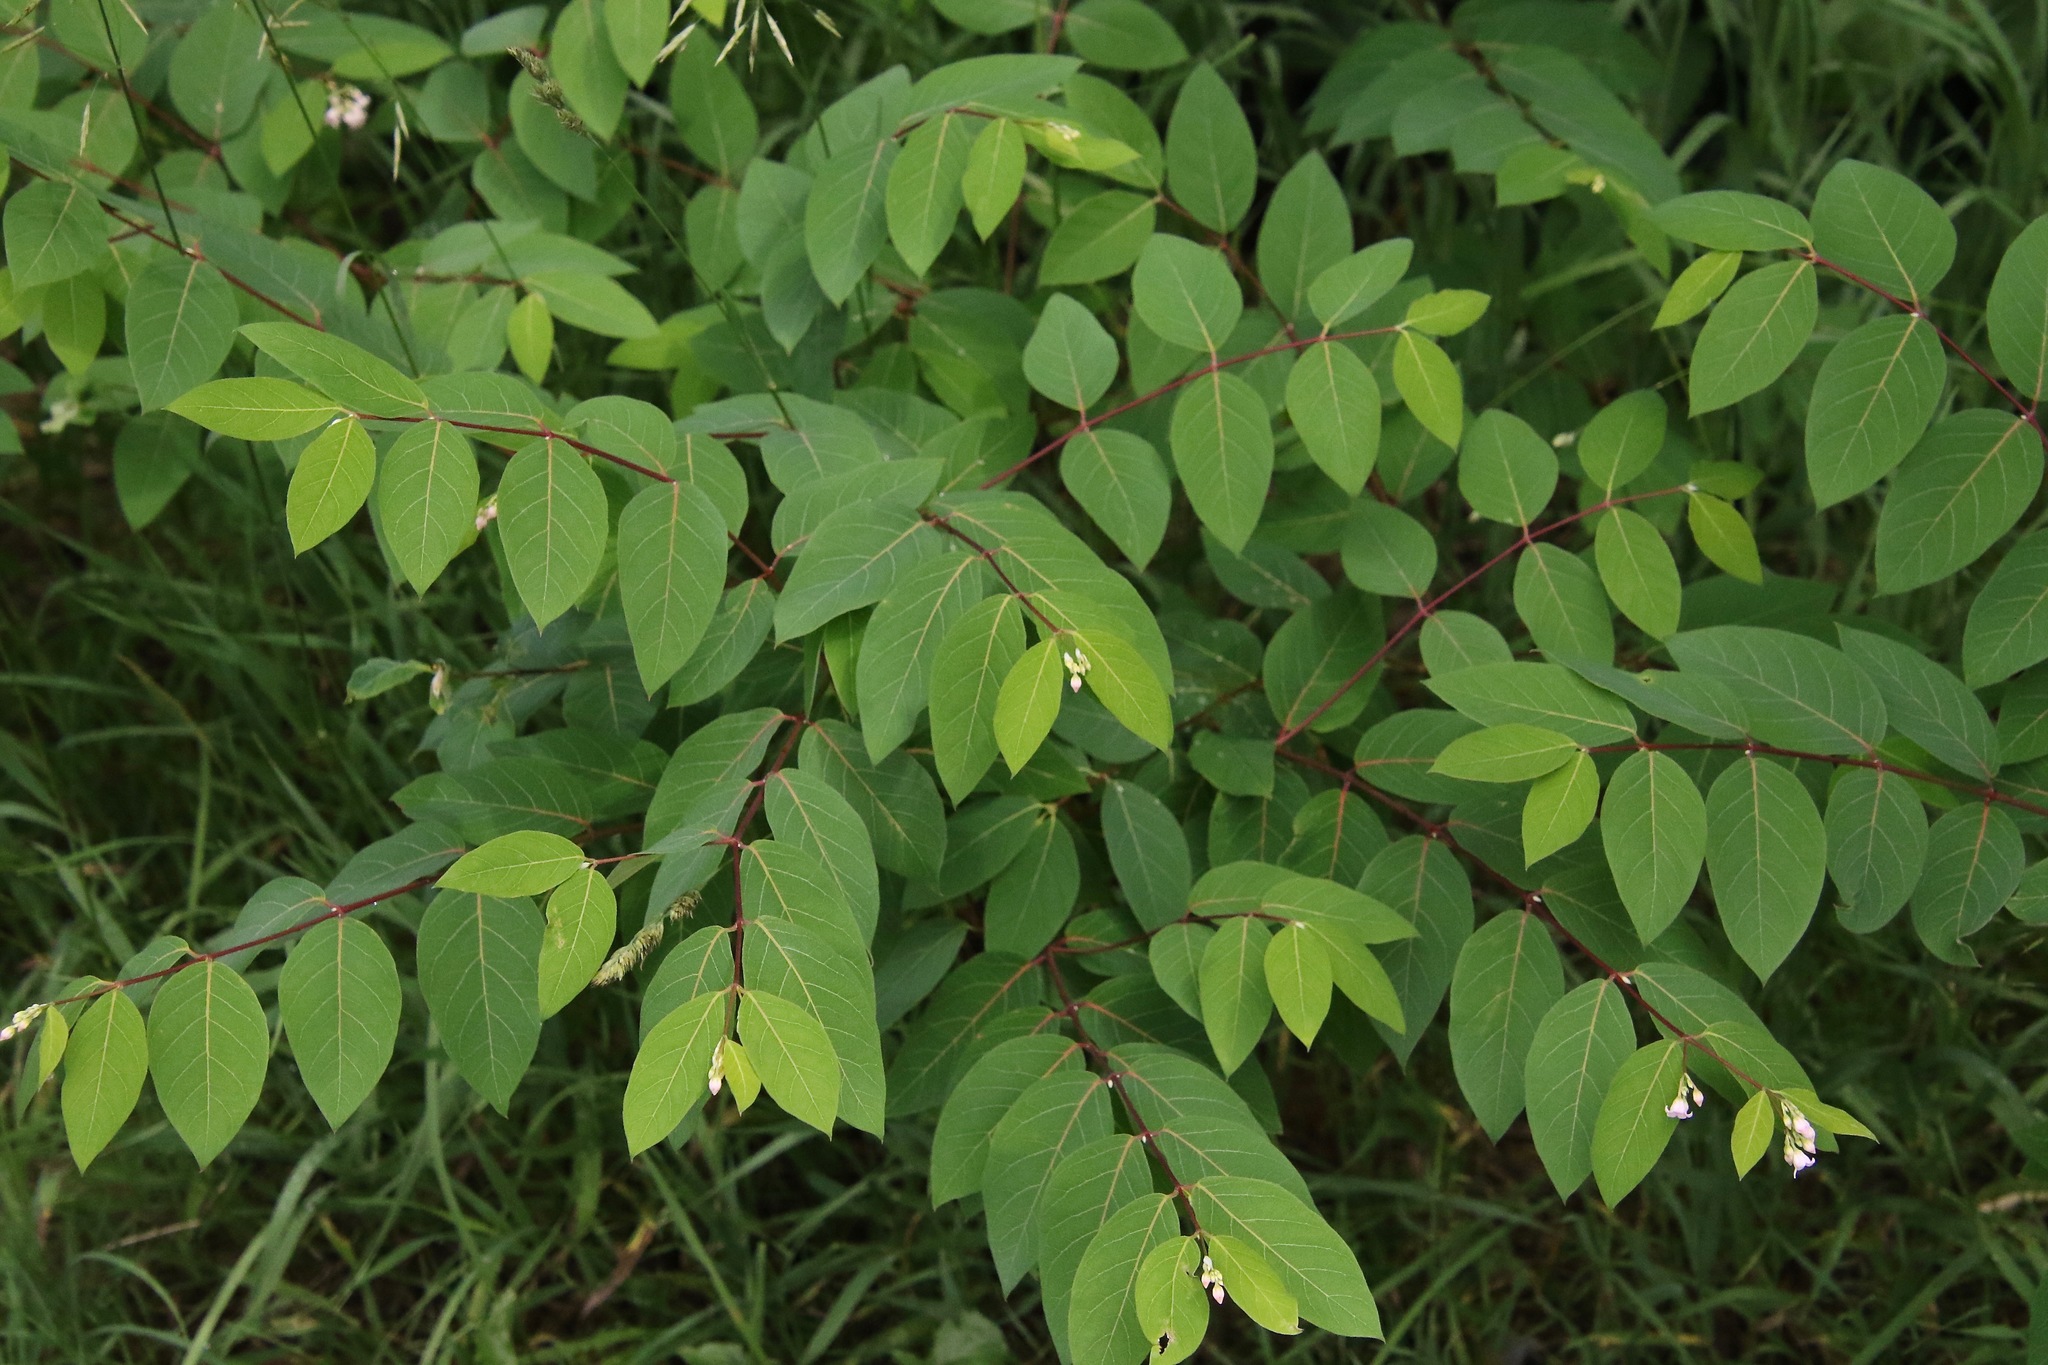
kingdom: Plantae
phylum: Tracheophyta
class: Magnoliopsida
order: Gentianales
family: Apocynaceae
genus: Apocynum
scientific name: Apocynum androsaemifolium
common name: Spreading dogbane
